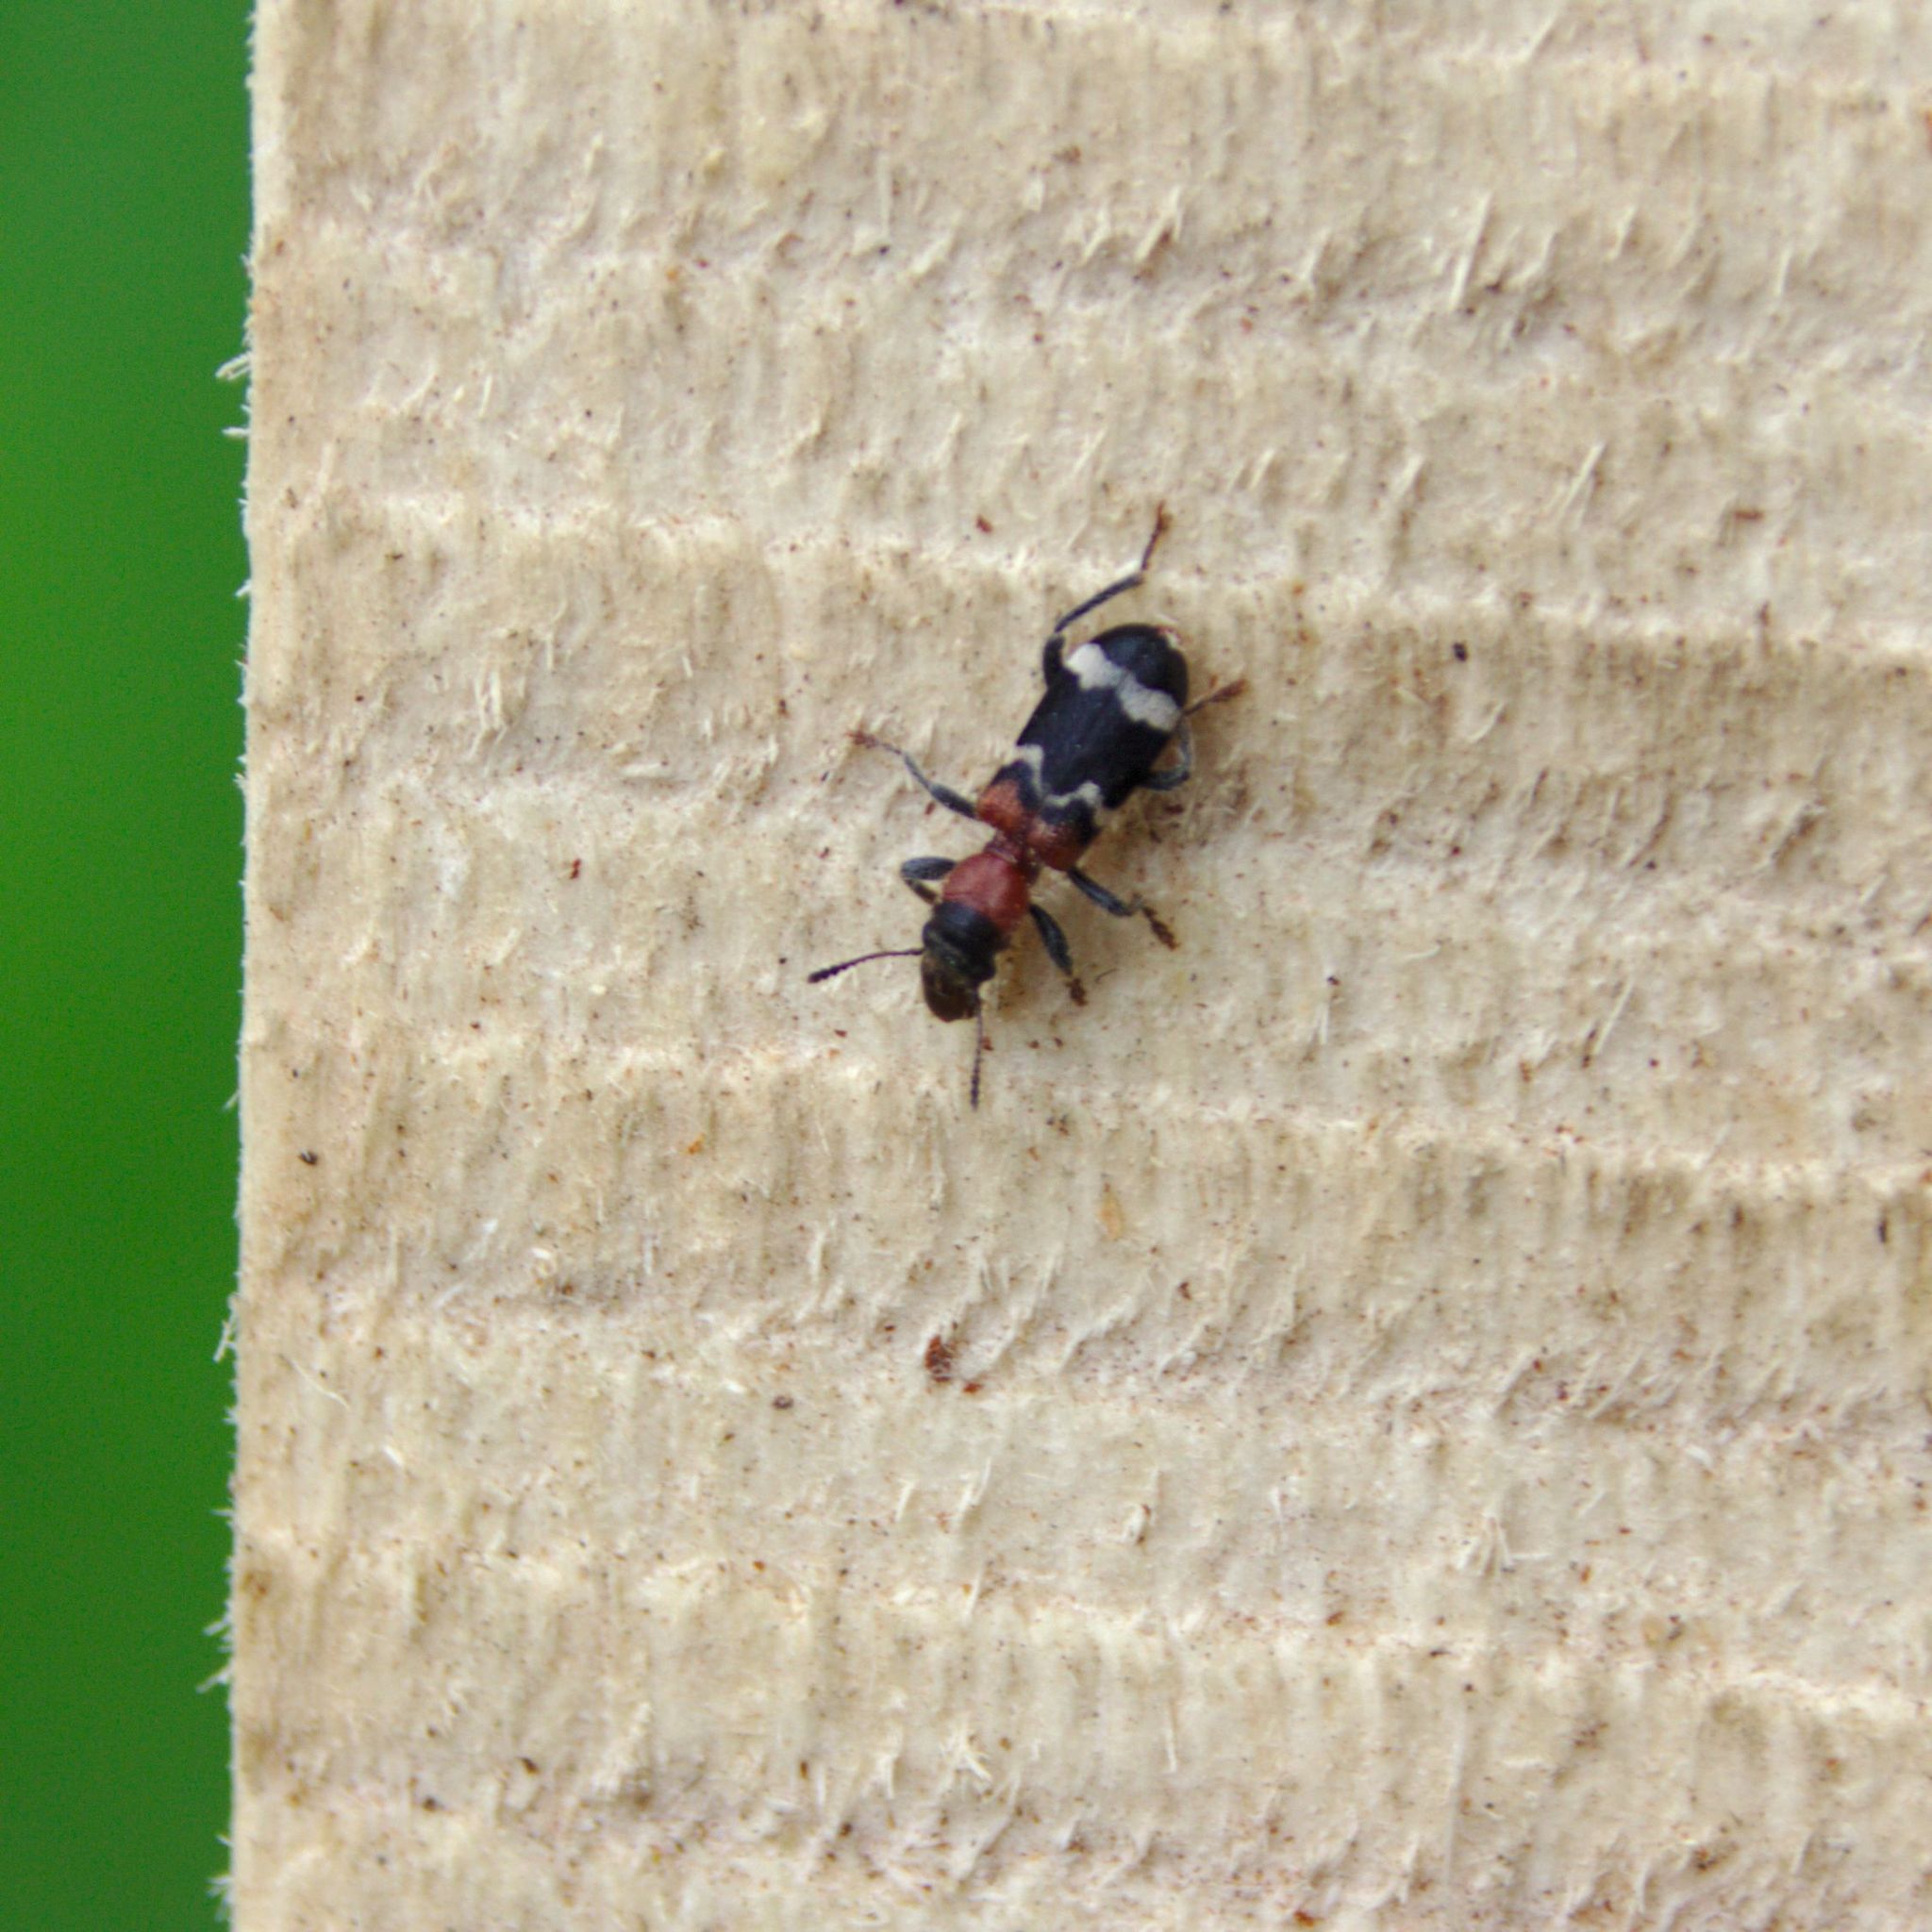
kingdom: Animalia
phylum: Arthropoda
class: Insecta
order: Coleoptera
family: Cleridae
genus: Thanasimus
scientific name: Thanasimus formicarius
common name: Ant beetle
